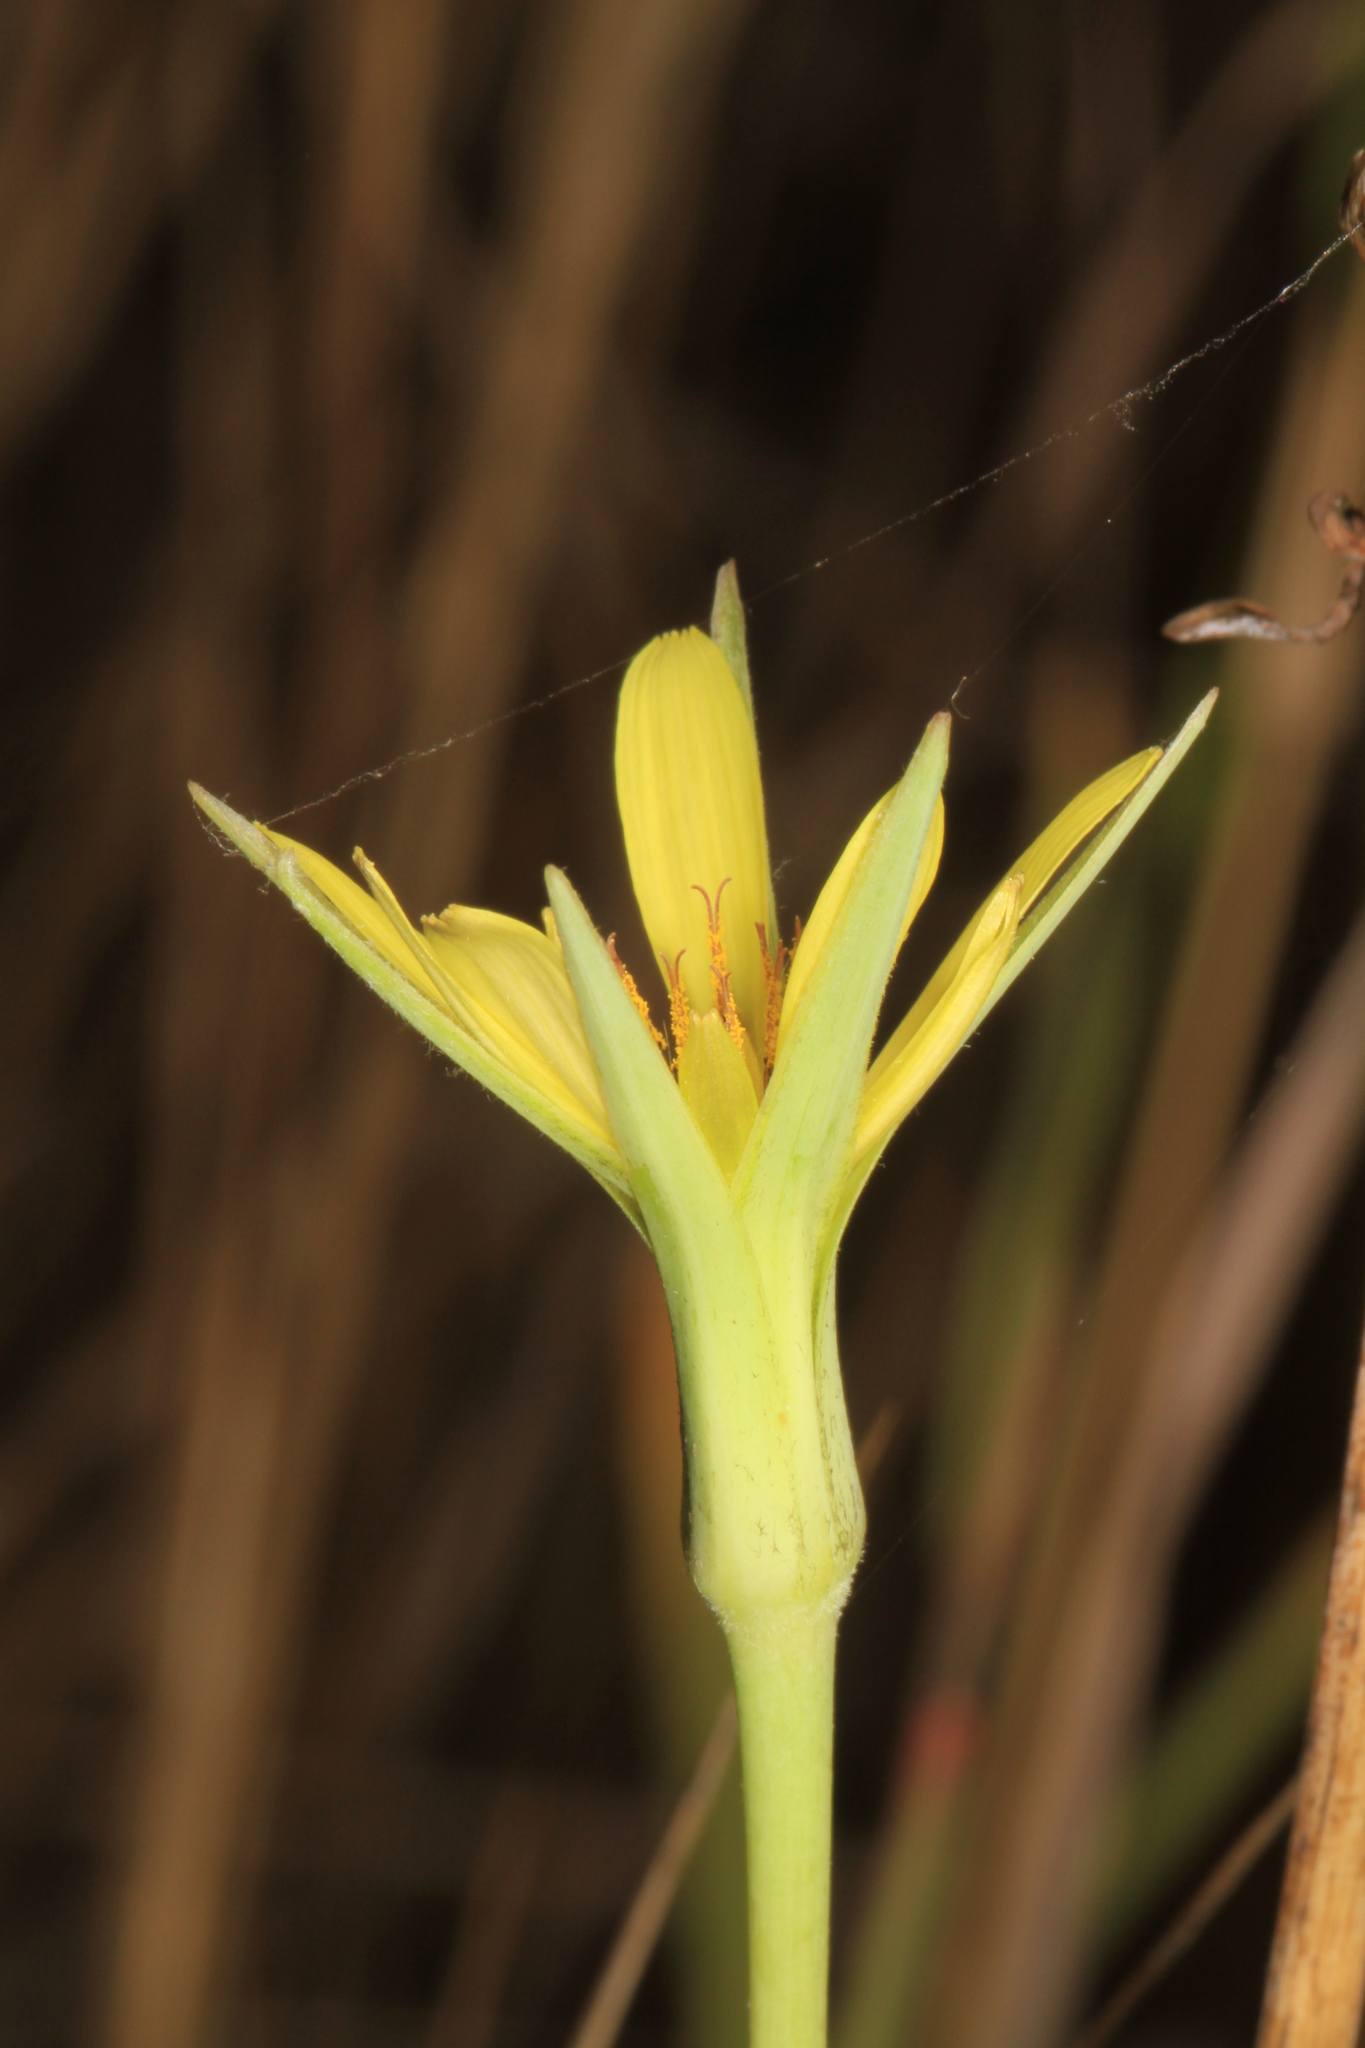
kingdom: Plantae
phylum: Tracheophyta
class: Magnoliopsida
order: Asterales
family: Asteraceae
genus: Tragopogon
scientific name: Tragopogon pratensis
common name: Goat's-beard
